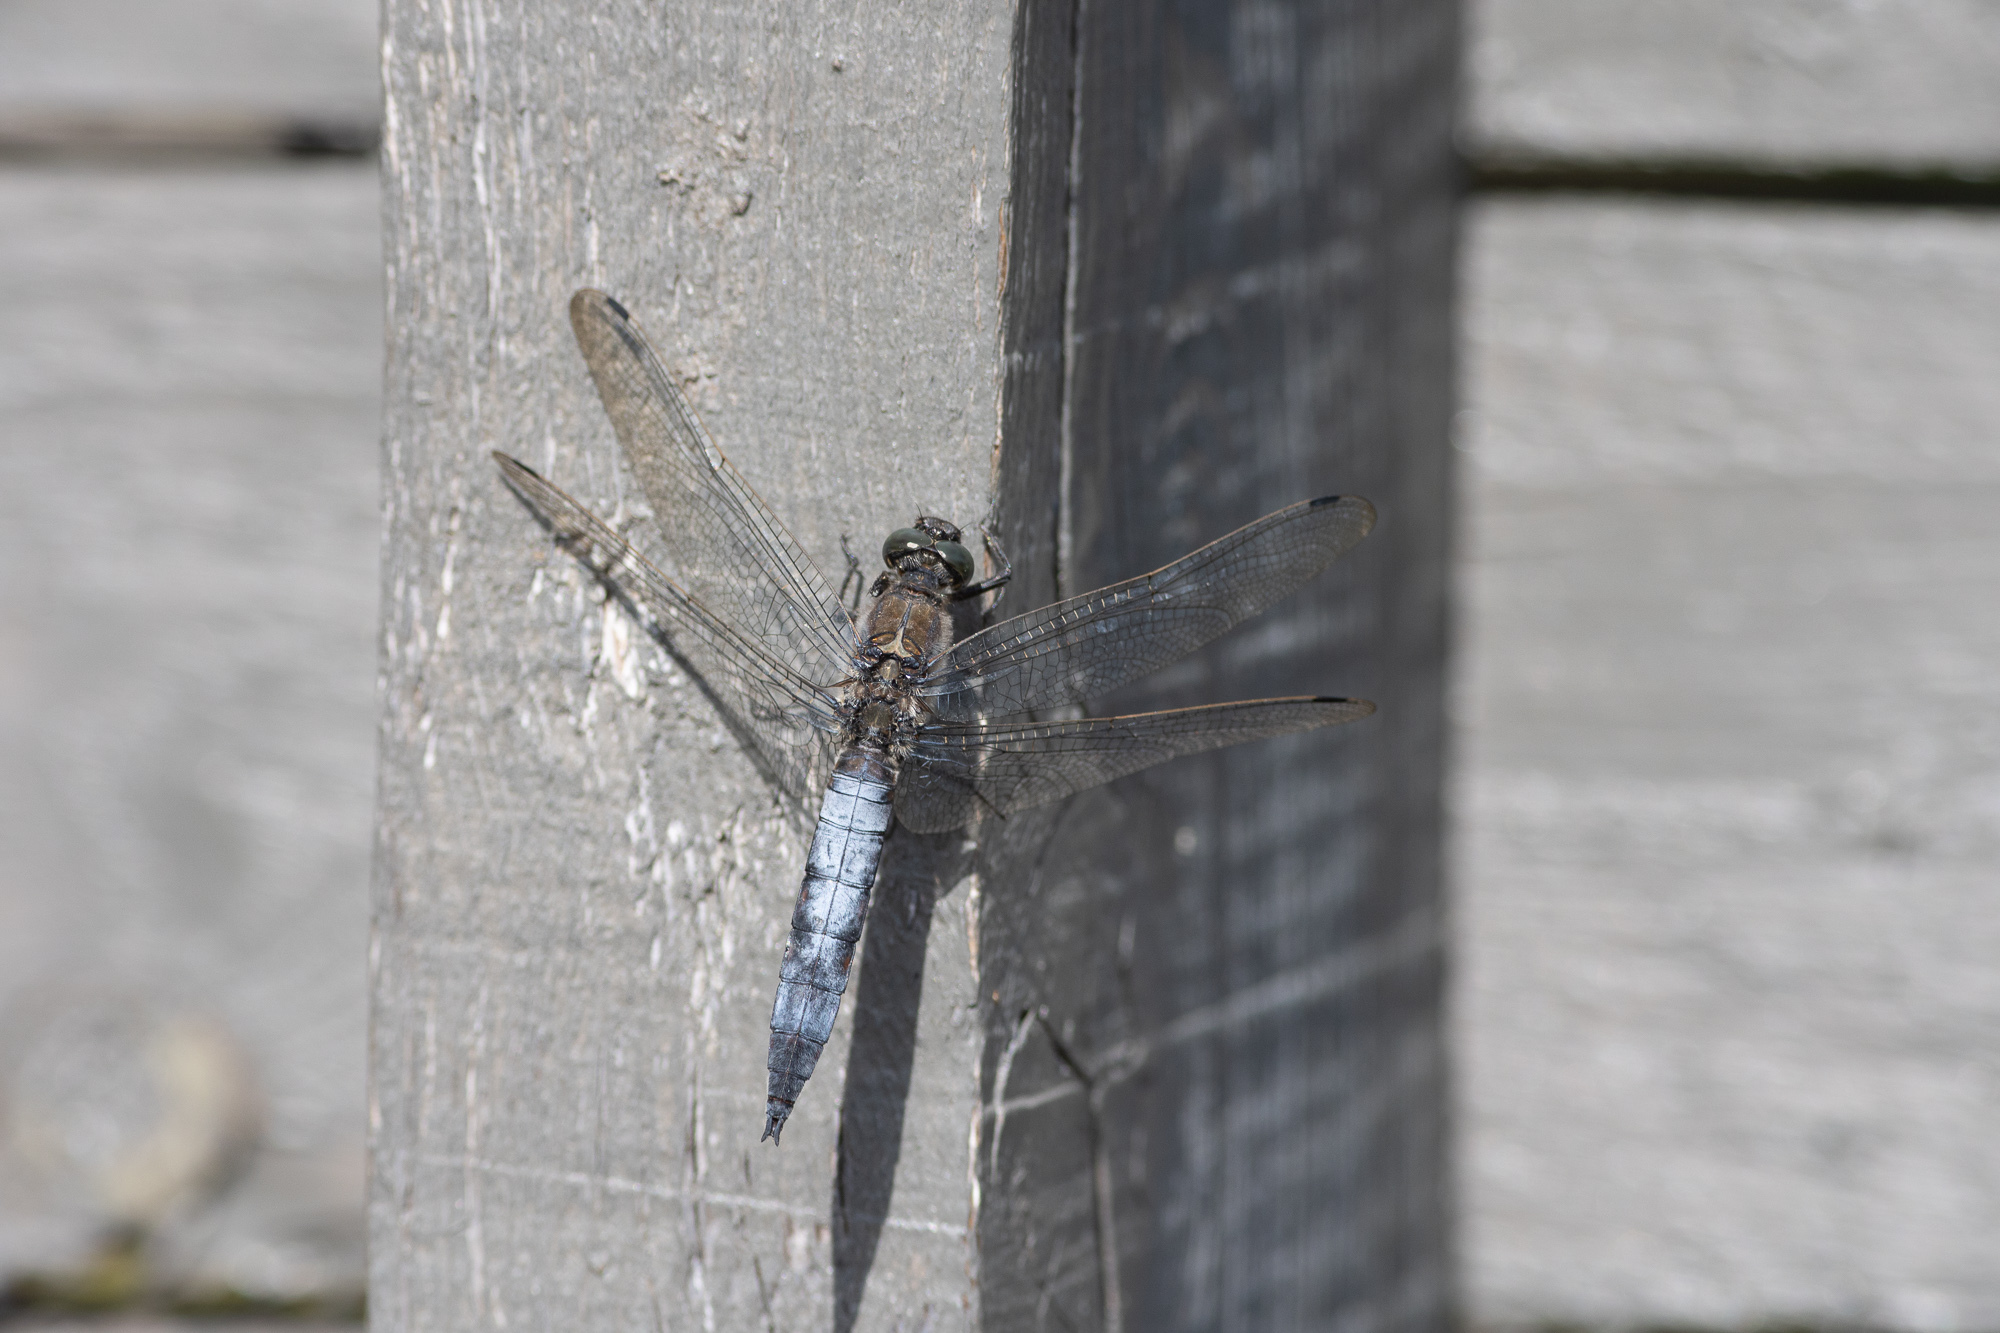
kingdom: Animalia
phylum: Arthropoda
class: Insecta
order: Odonata
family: Libellulidae
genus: Orthetrum
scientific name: Orthetrum cancellatum
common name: Black-tailed skimmer
